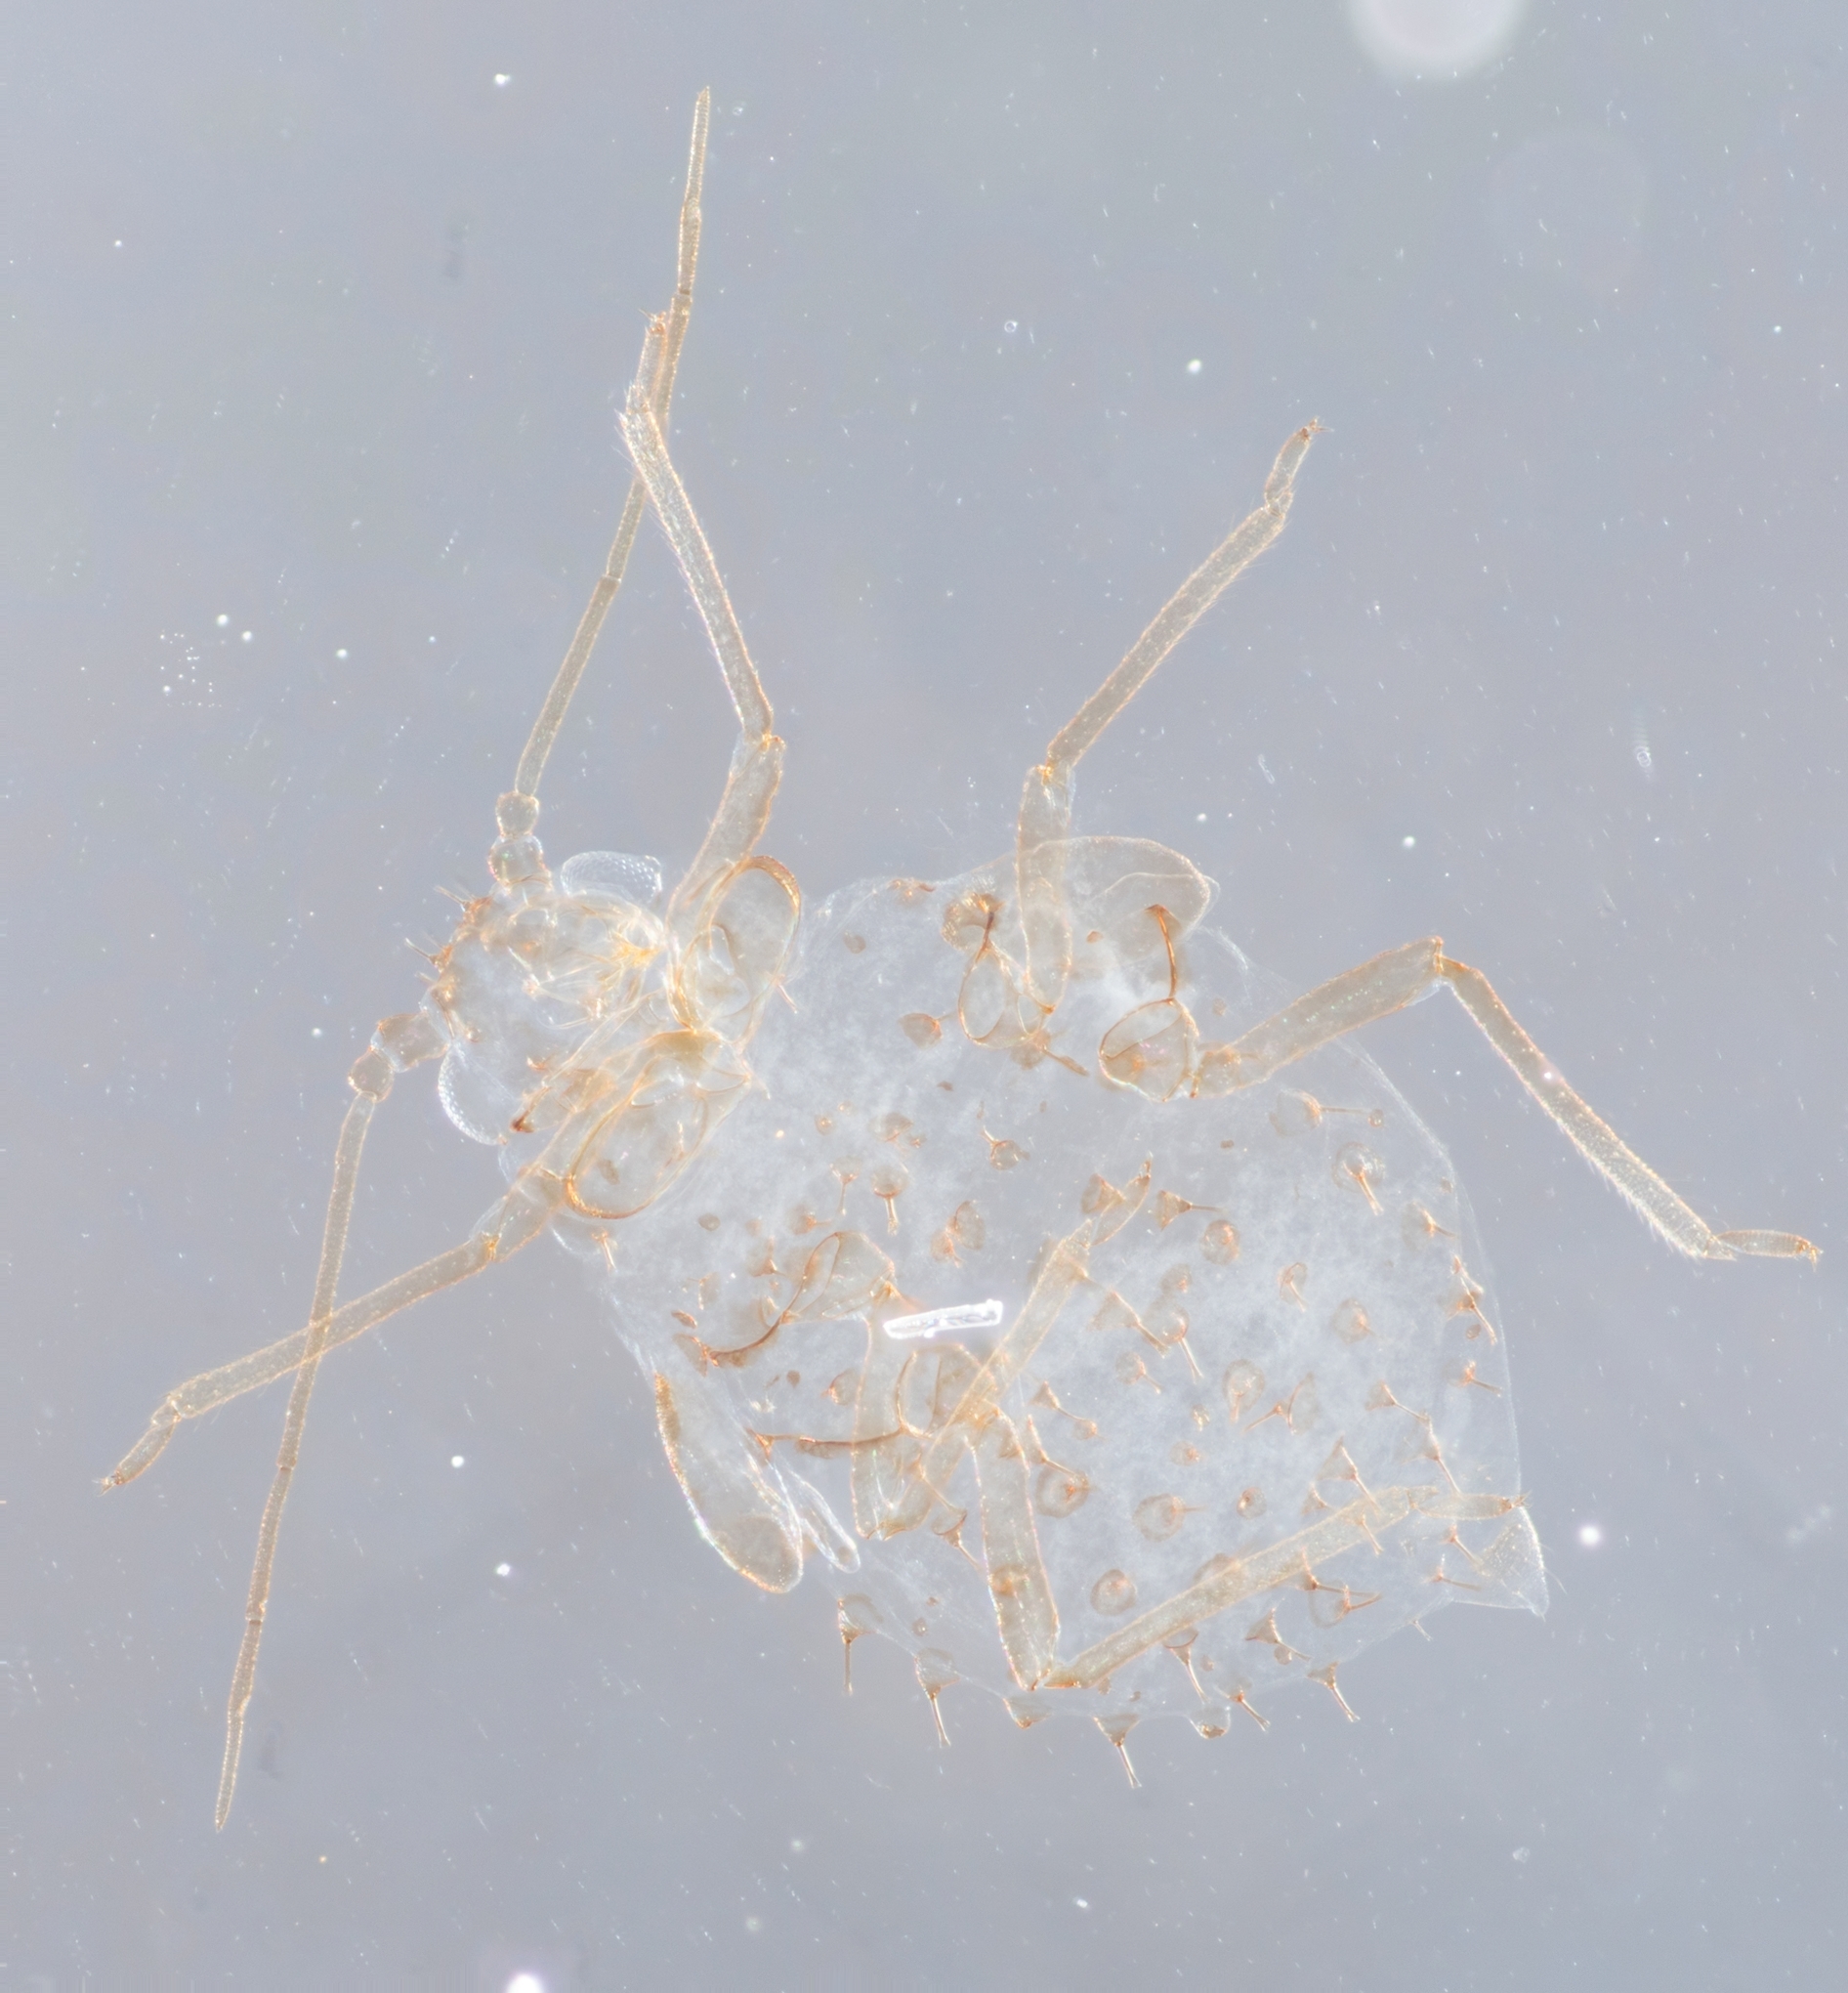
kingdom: Animalia
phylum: Arthropoda
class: Insecta
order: Hemiptera
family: Aphididae
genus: Therioaphis
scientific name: Therioaphis trifolii
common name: Spotted alfalfa aphid
